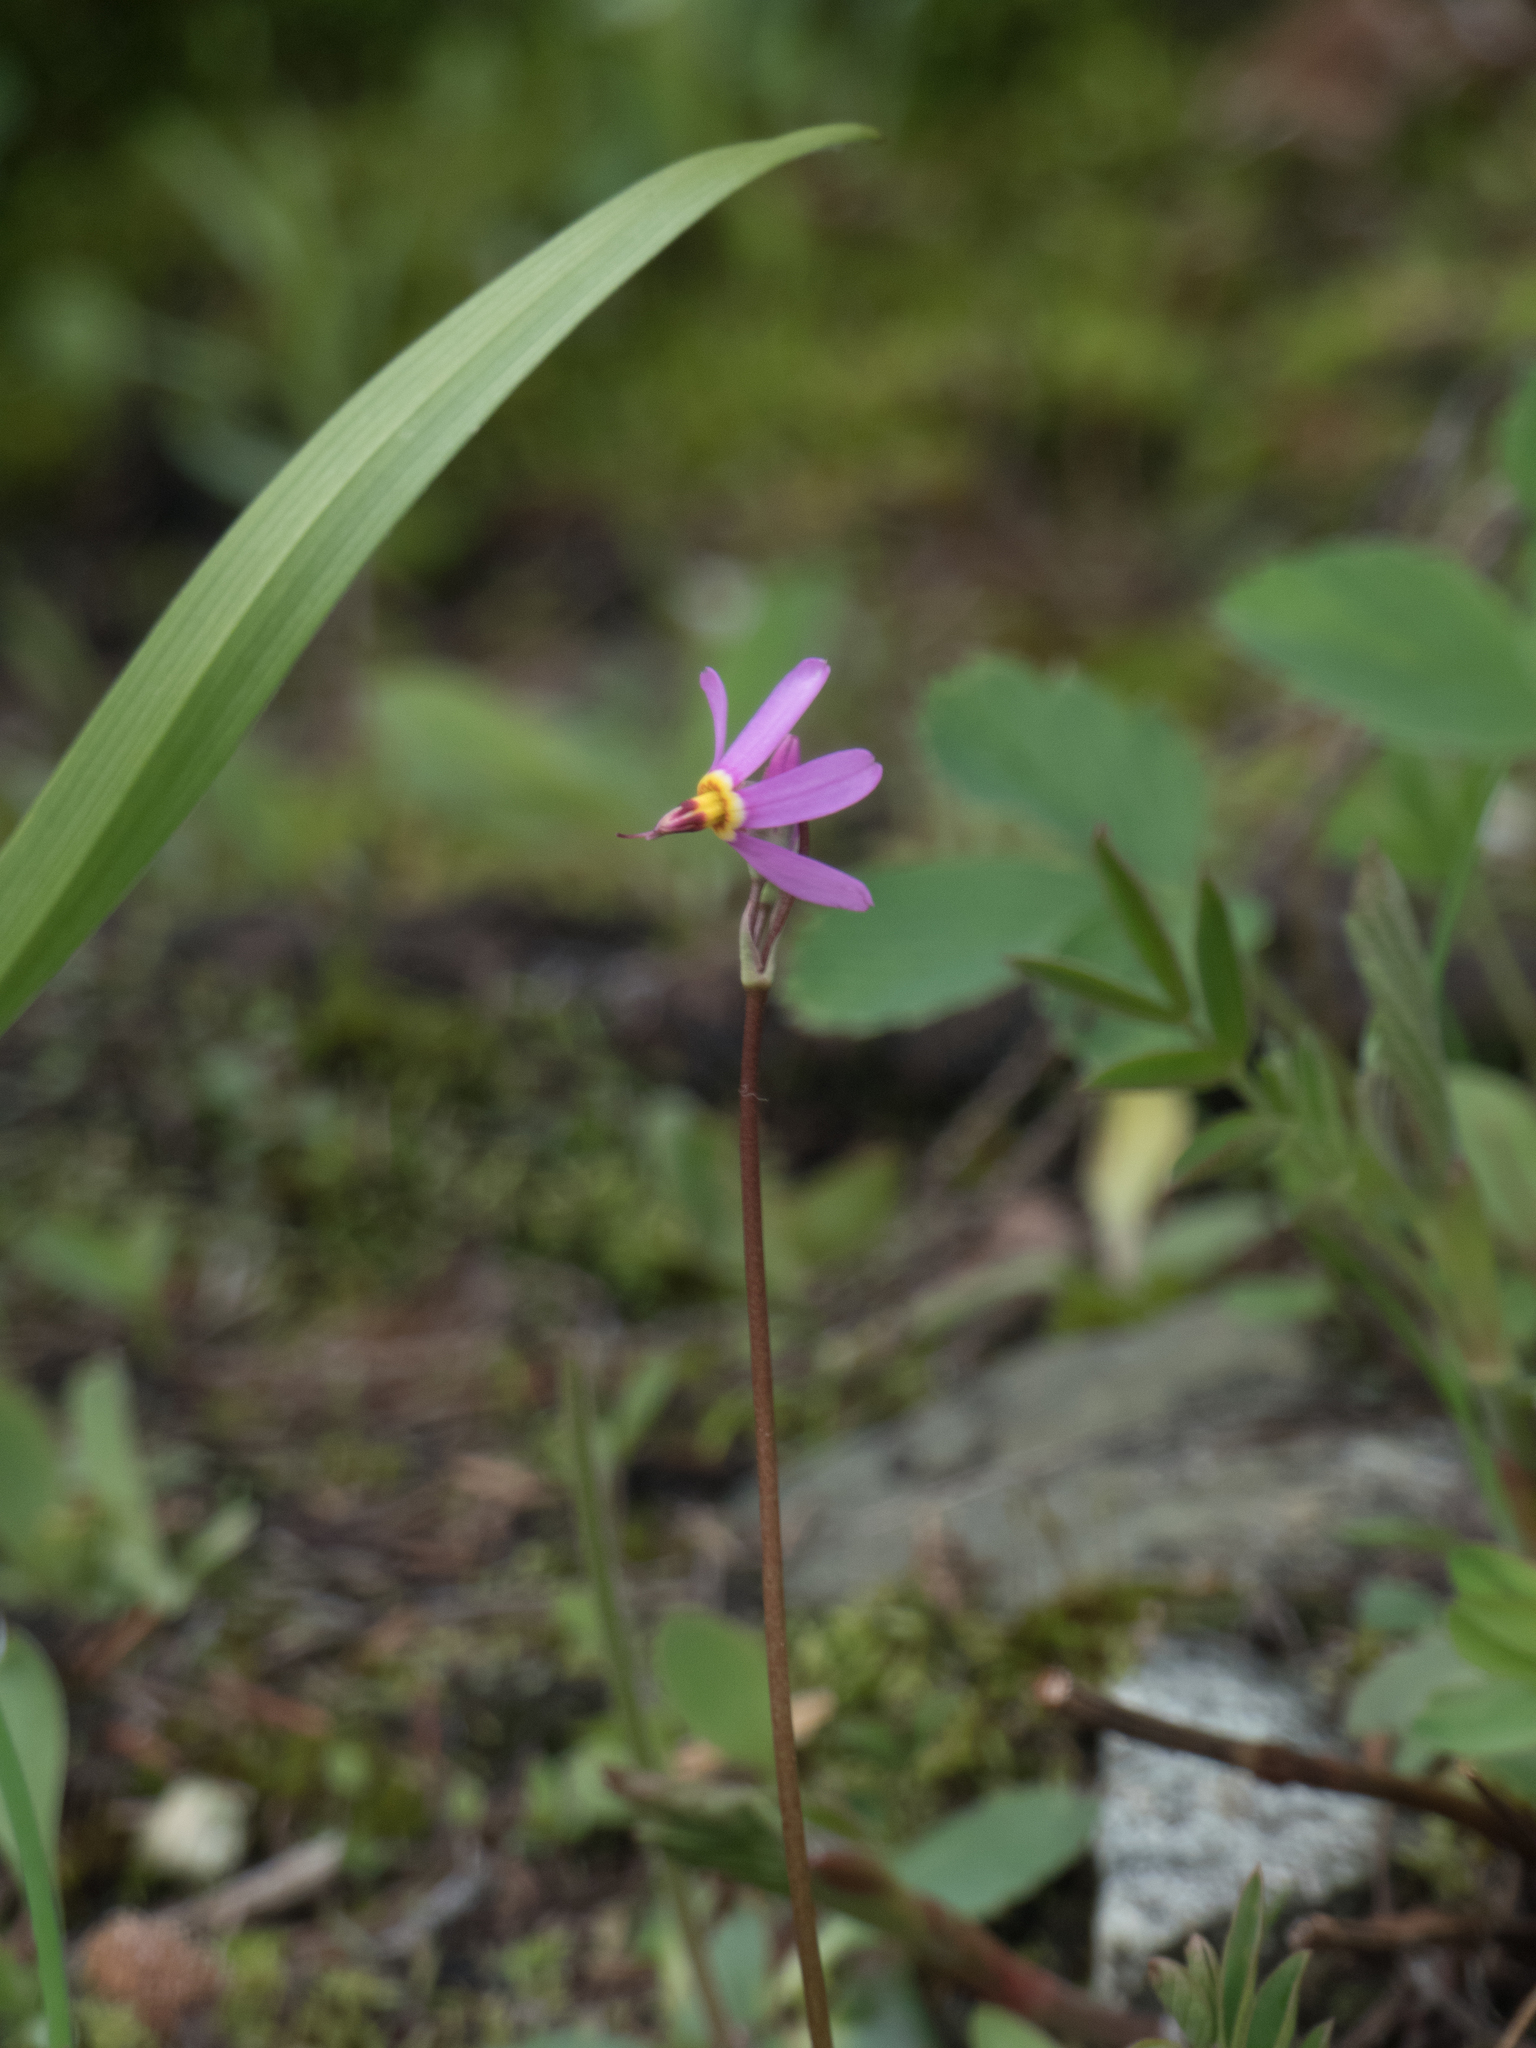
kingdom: Plantae
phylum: Tracheophyta
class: Magnoliopsida
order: Ericales
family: Primulaceae
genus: Dodecatheon
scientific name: Dodecatheon pulchellum
